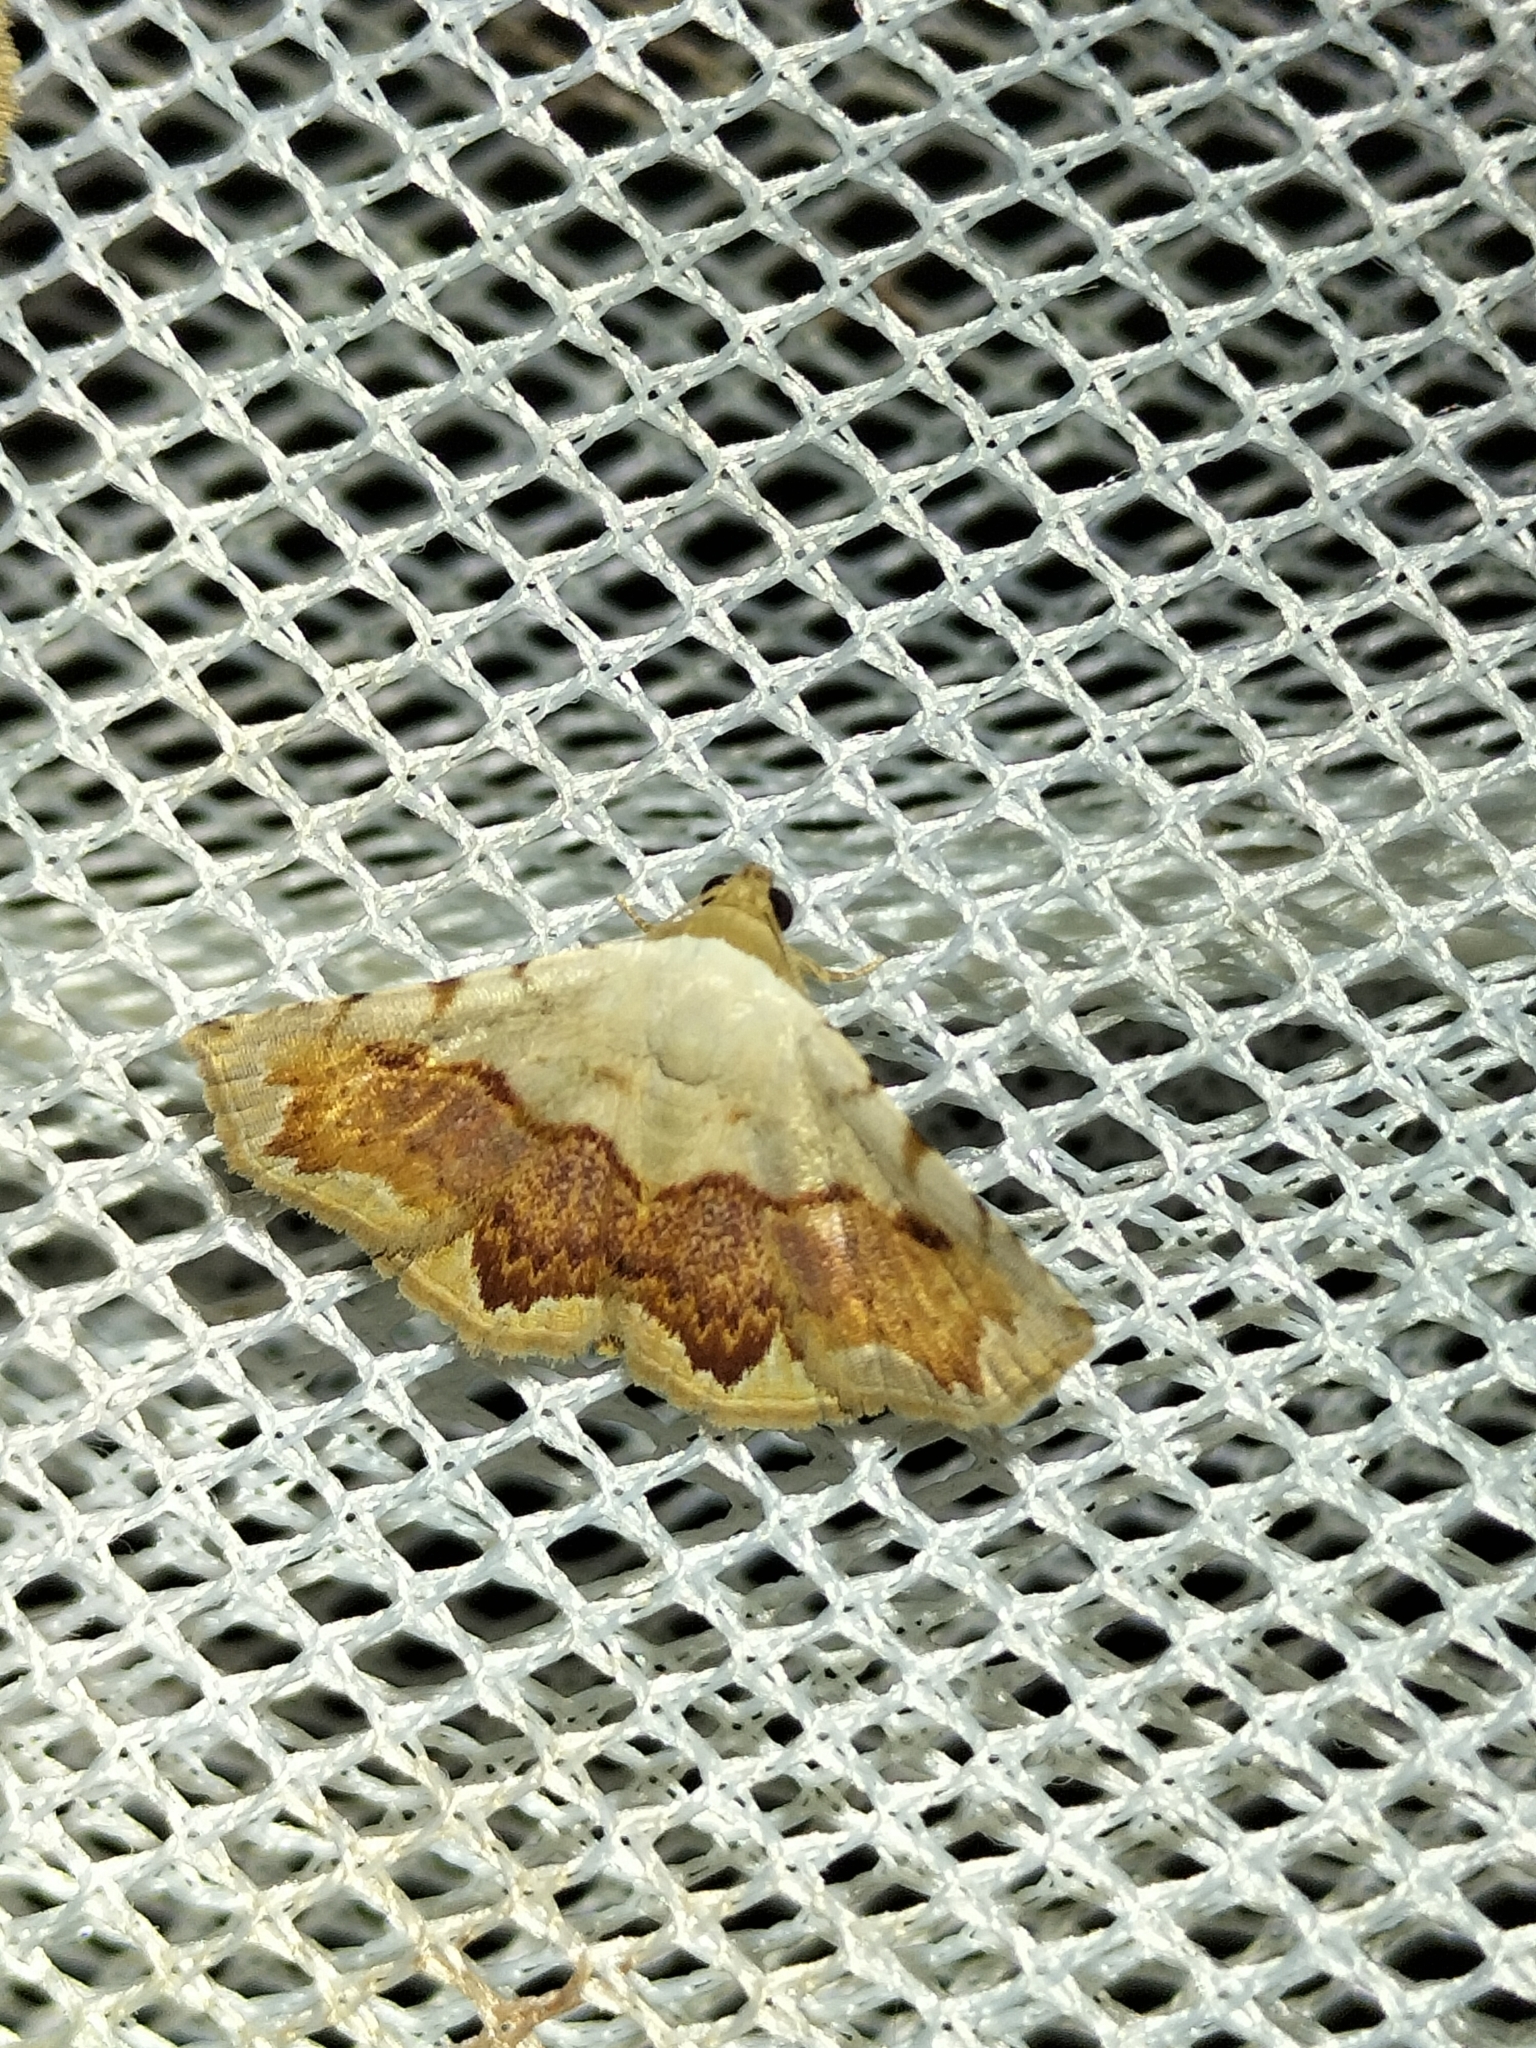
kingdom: Animalia
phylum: Arthropoda
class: Insecta
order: Lepidoptera
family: Noctuidae
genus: Eublemma
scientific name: Eublemma
